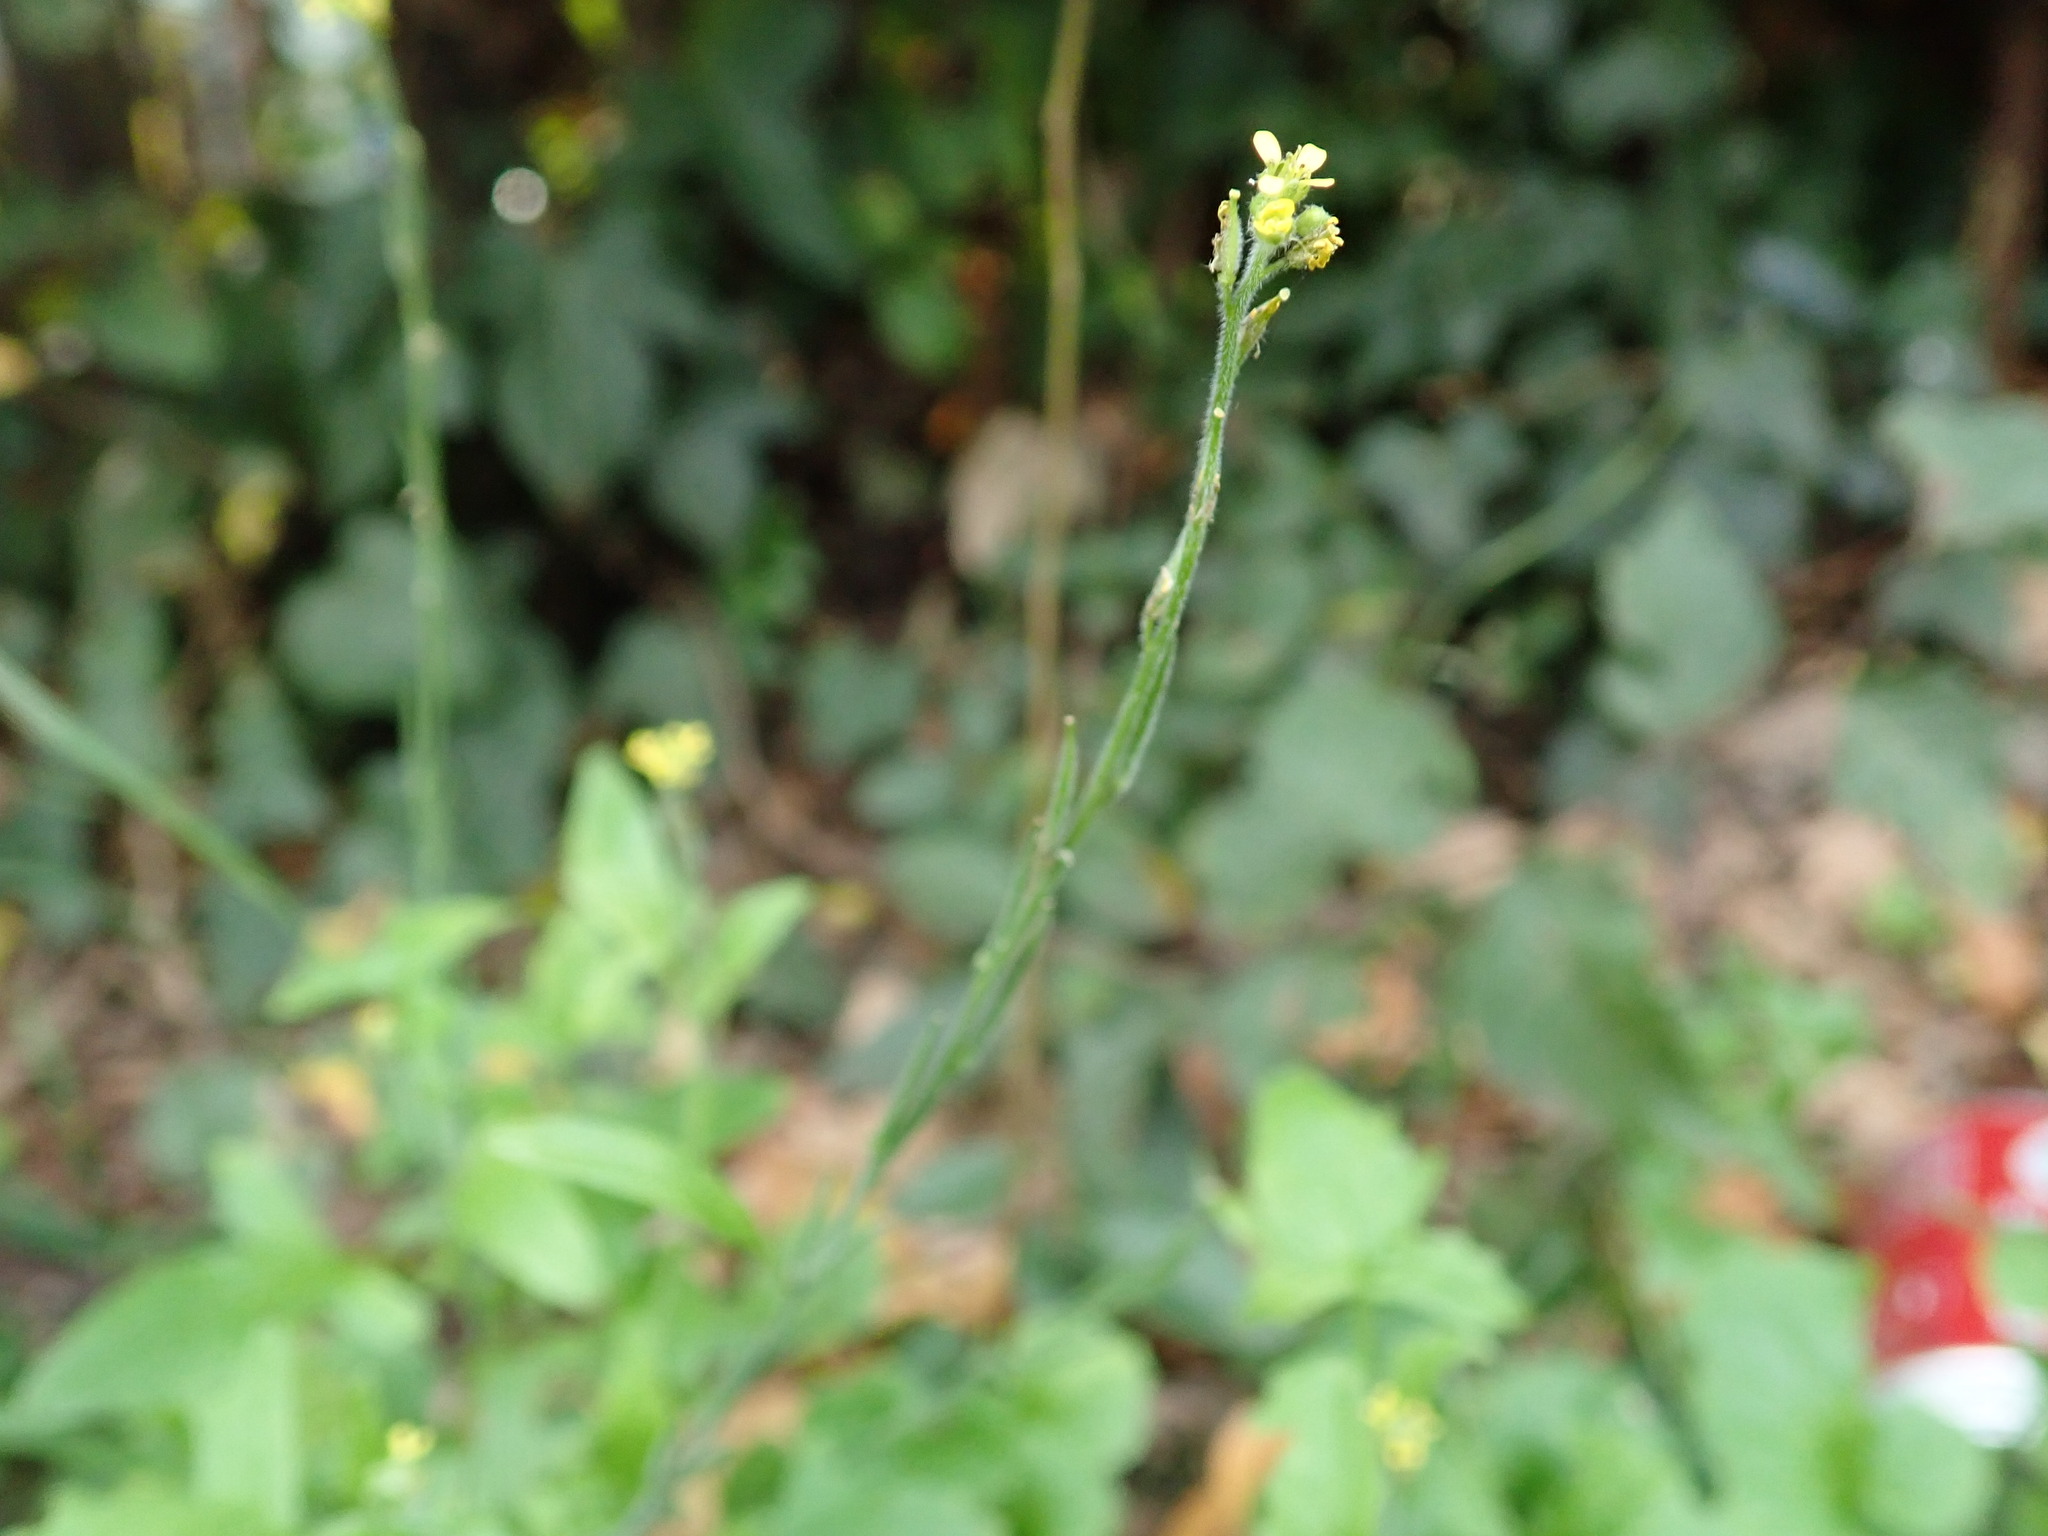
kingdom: Plantae
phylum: Tracheophyta
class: Magnoliopsida
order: Brassicales
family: Brassicaceae
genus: Sisymbrium
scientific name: Sisymbrium officinale
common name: Hedge mustard
